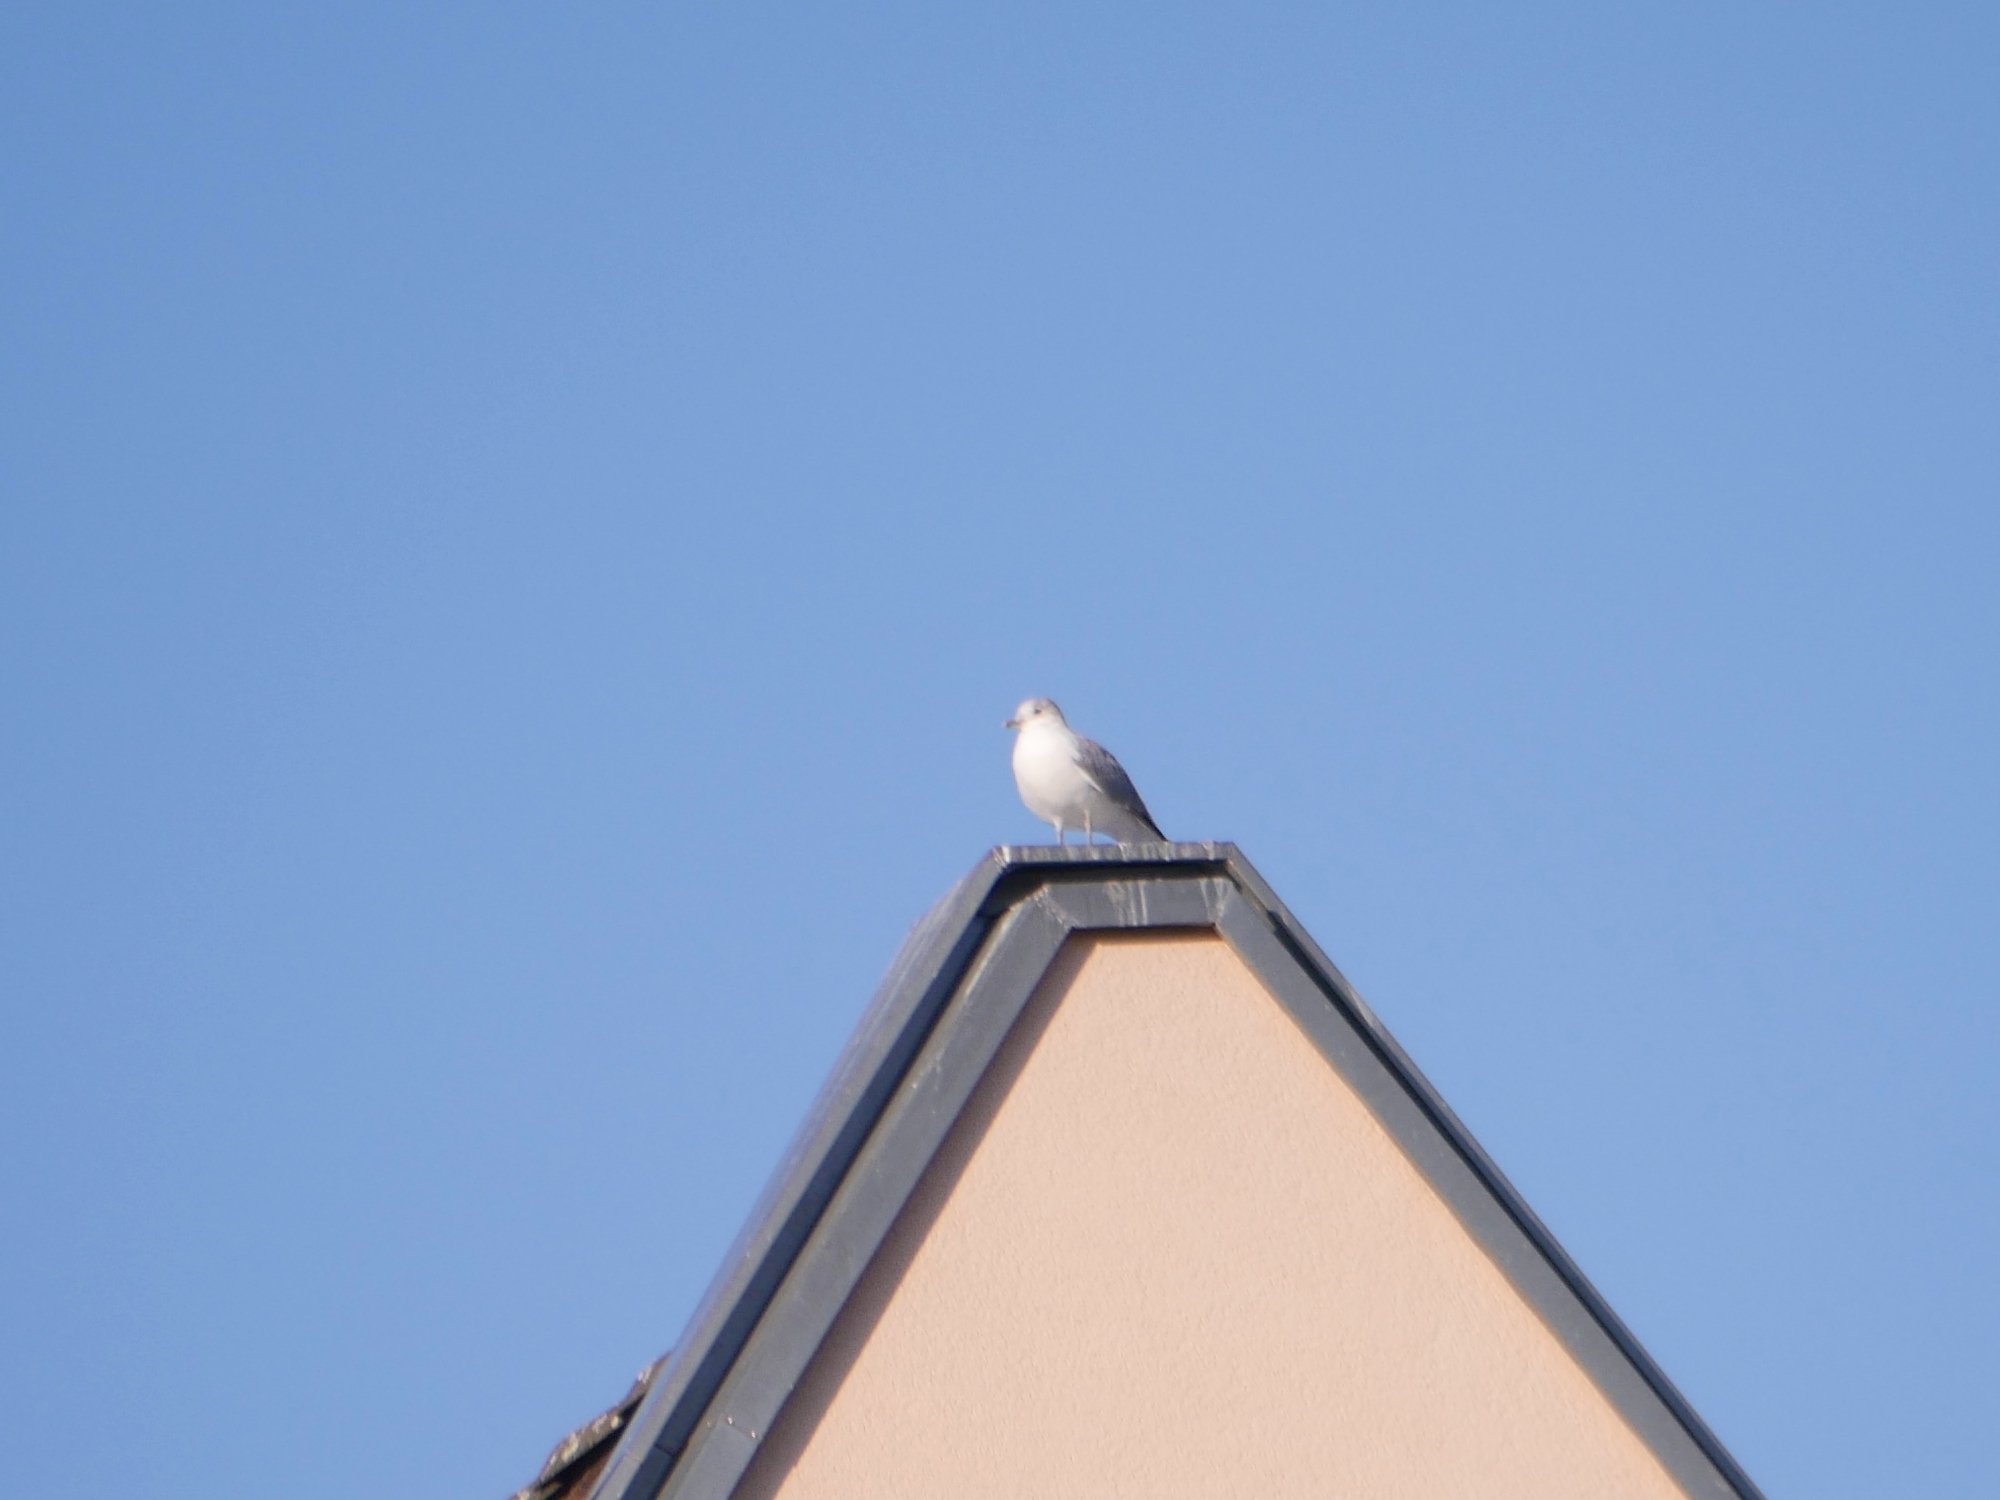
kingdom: Animalia
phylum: Chordata
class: Aves
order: Charadriiformes
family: Laridae
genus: Larus
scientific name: Larus canus
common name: Mew gull
